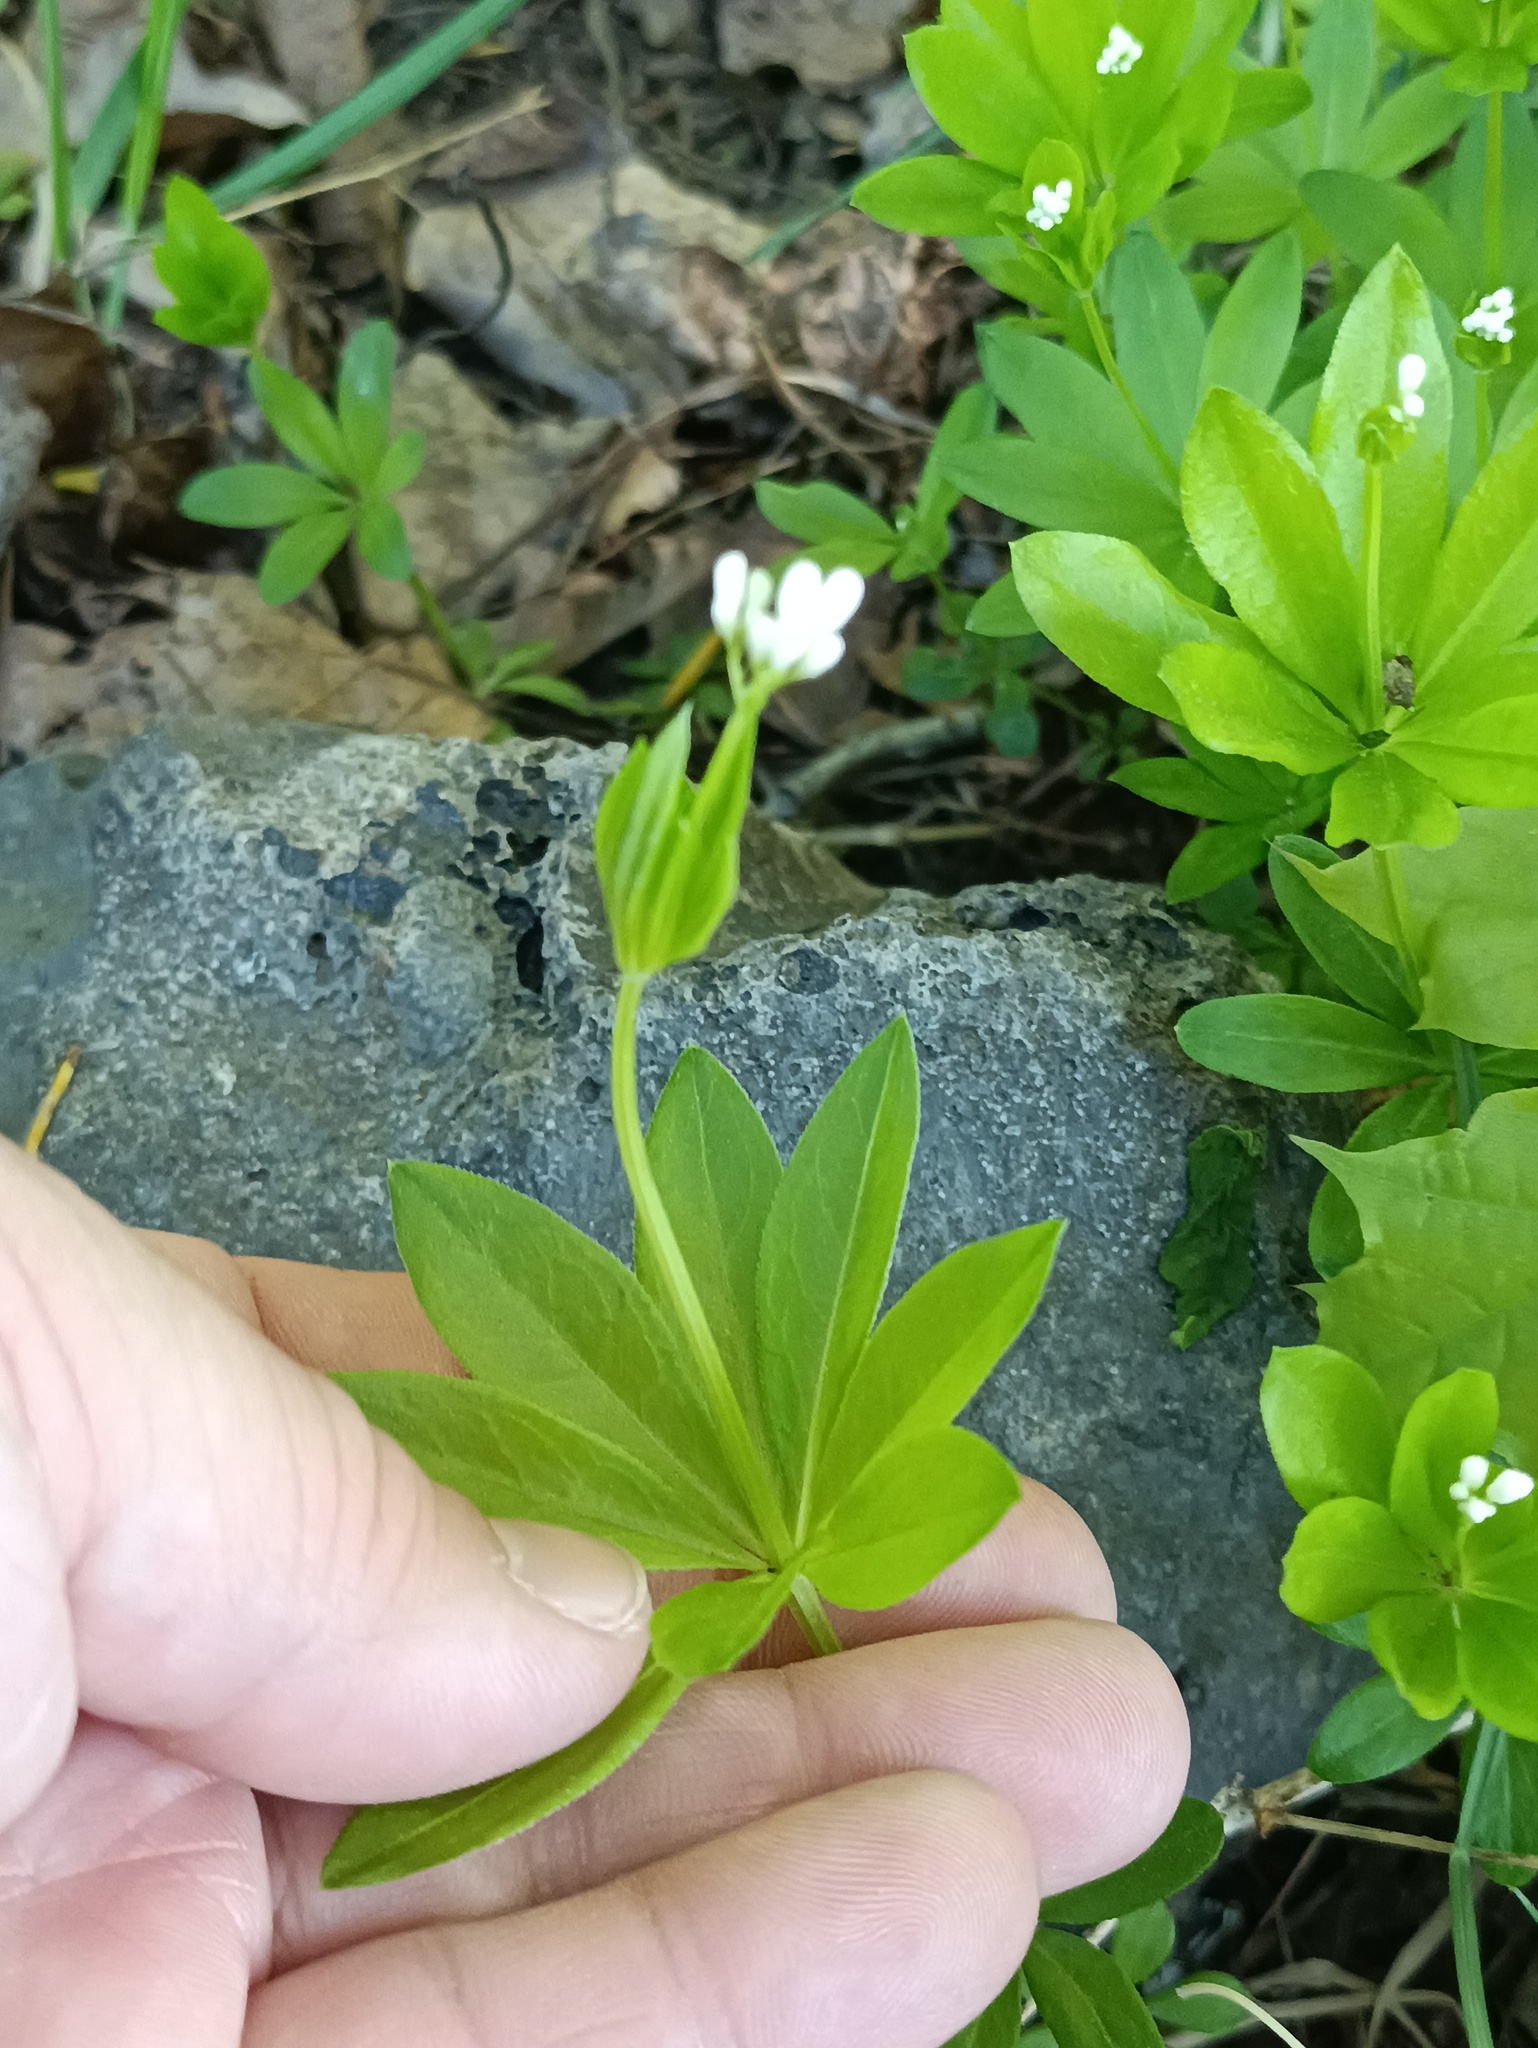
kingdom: Plantae
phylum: Tracheophyta
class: Magnoliopsida
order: Gentianales
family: Rubiaceae
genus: Galium
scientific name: Galium odoratum
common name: Sweet woodruff
